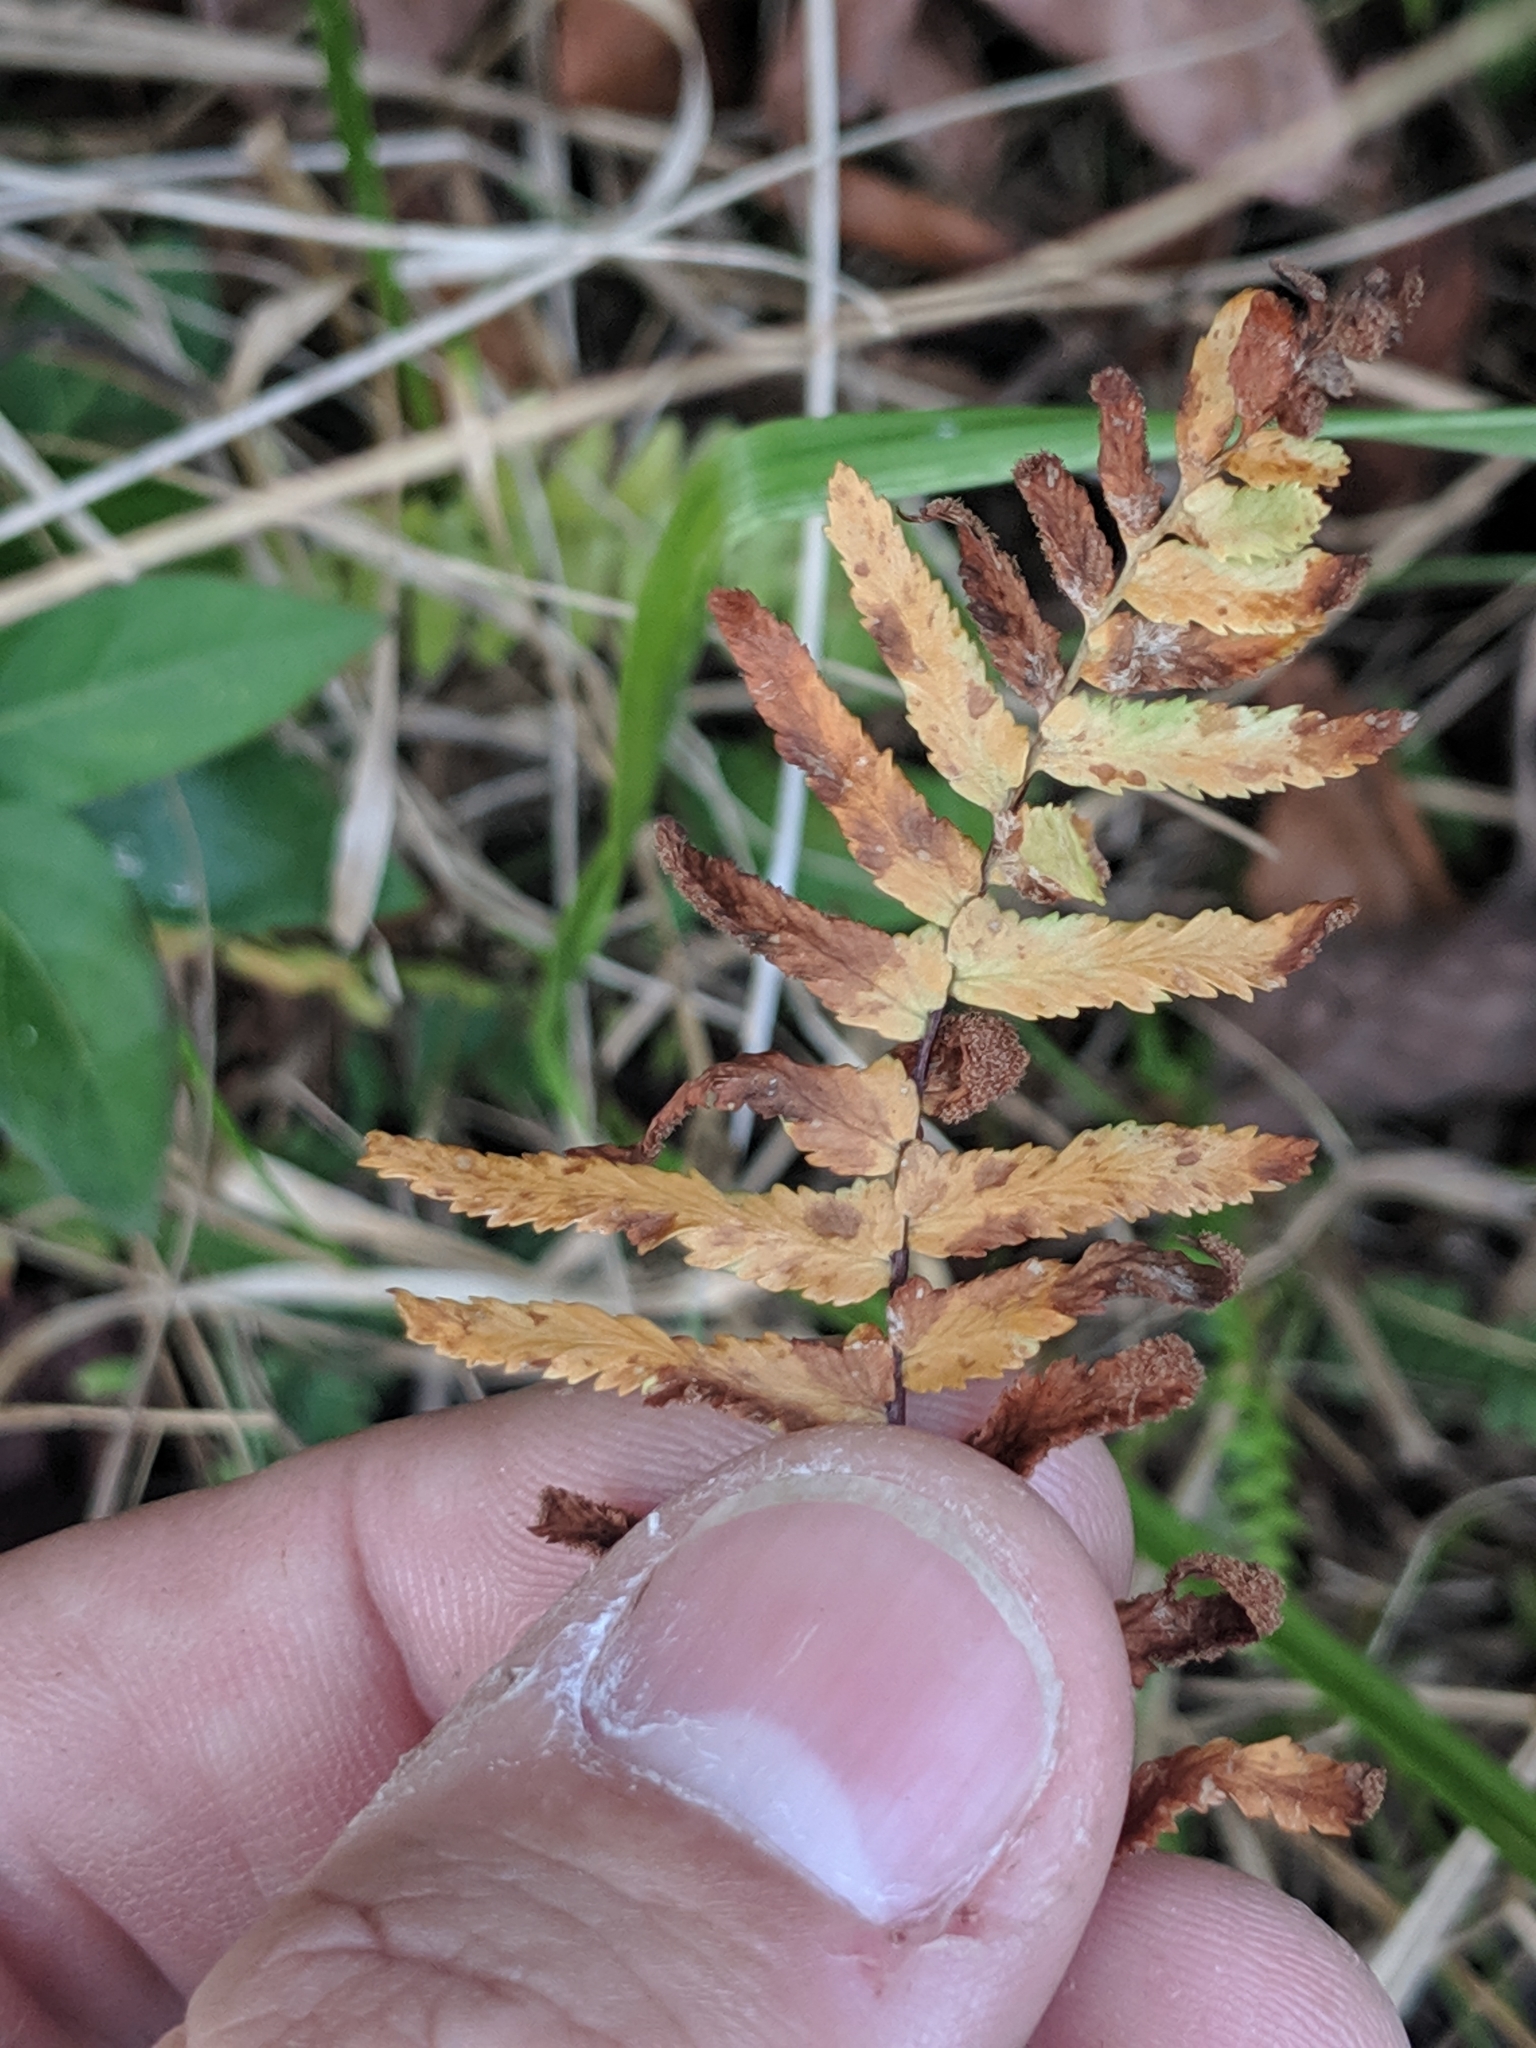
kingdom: Plantae
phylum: Tracheophyta
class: Polypodiopsida
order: Polypodiales
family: Aspleniaceae
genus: Asplenium
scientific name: Asplenium platyneuron
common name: Ebony spleenwort
